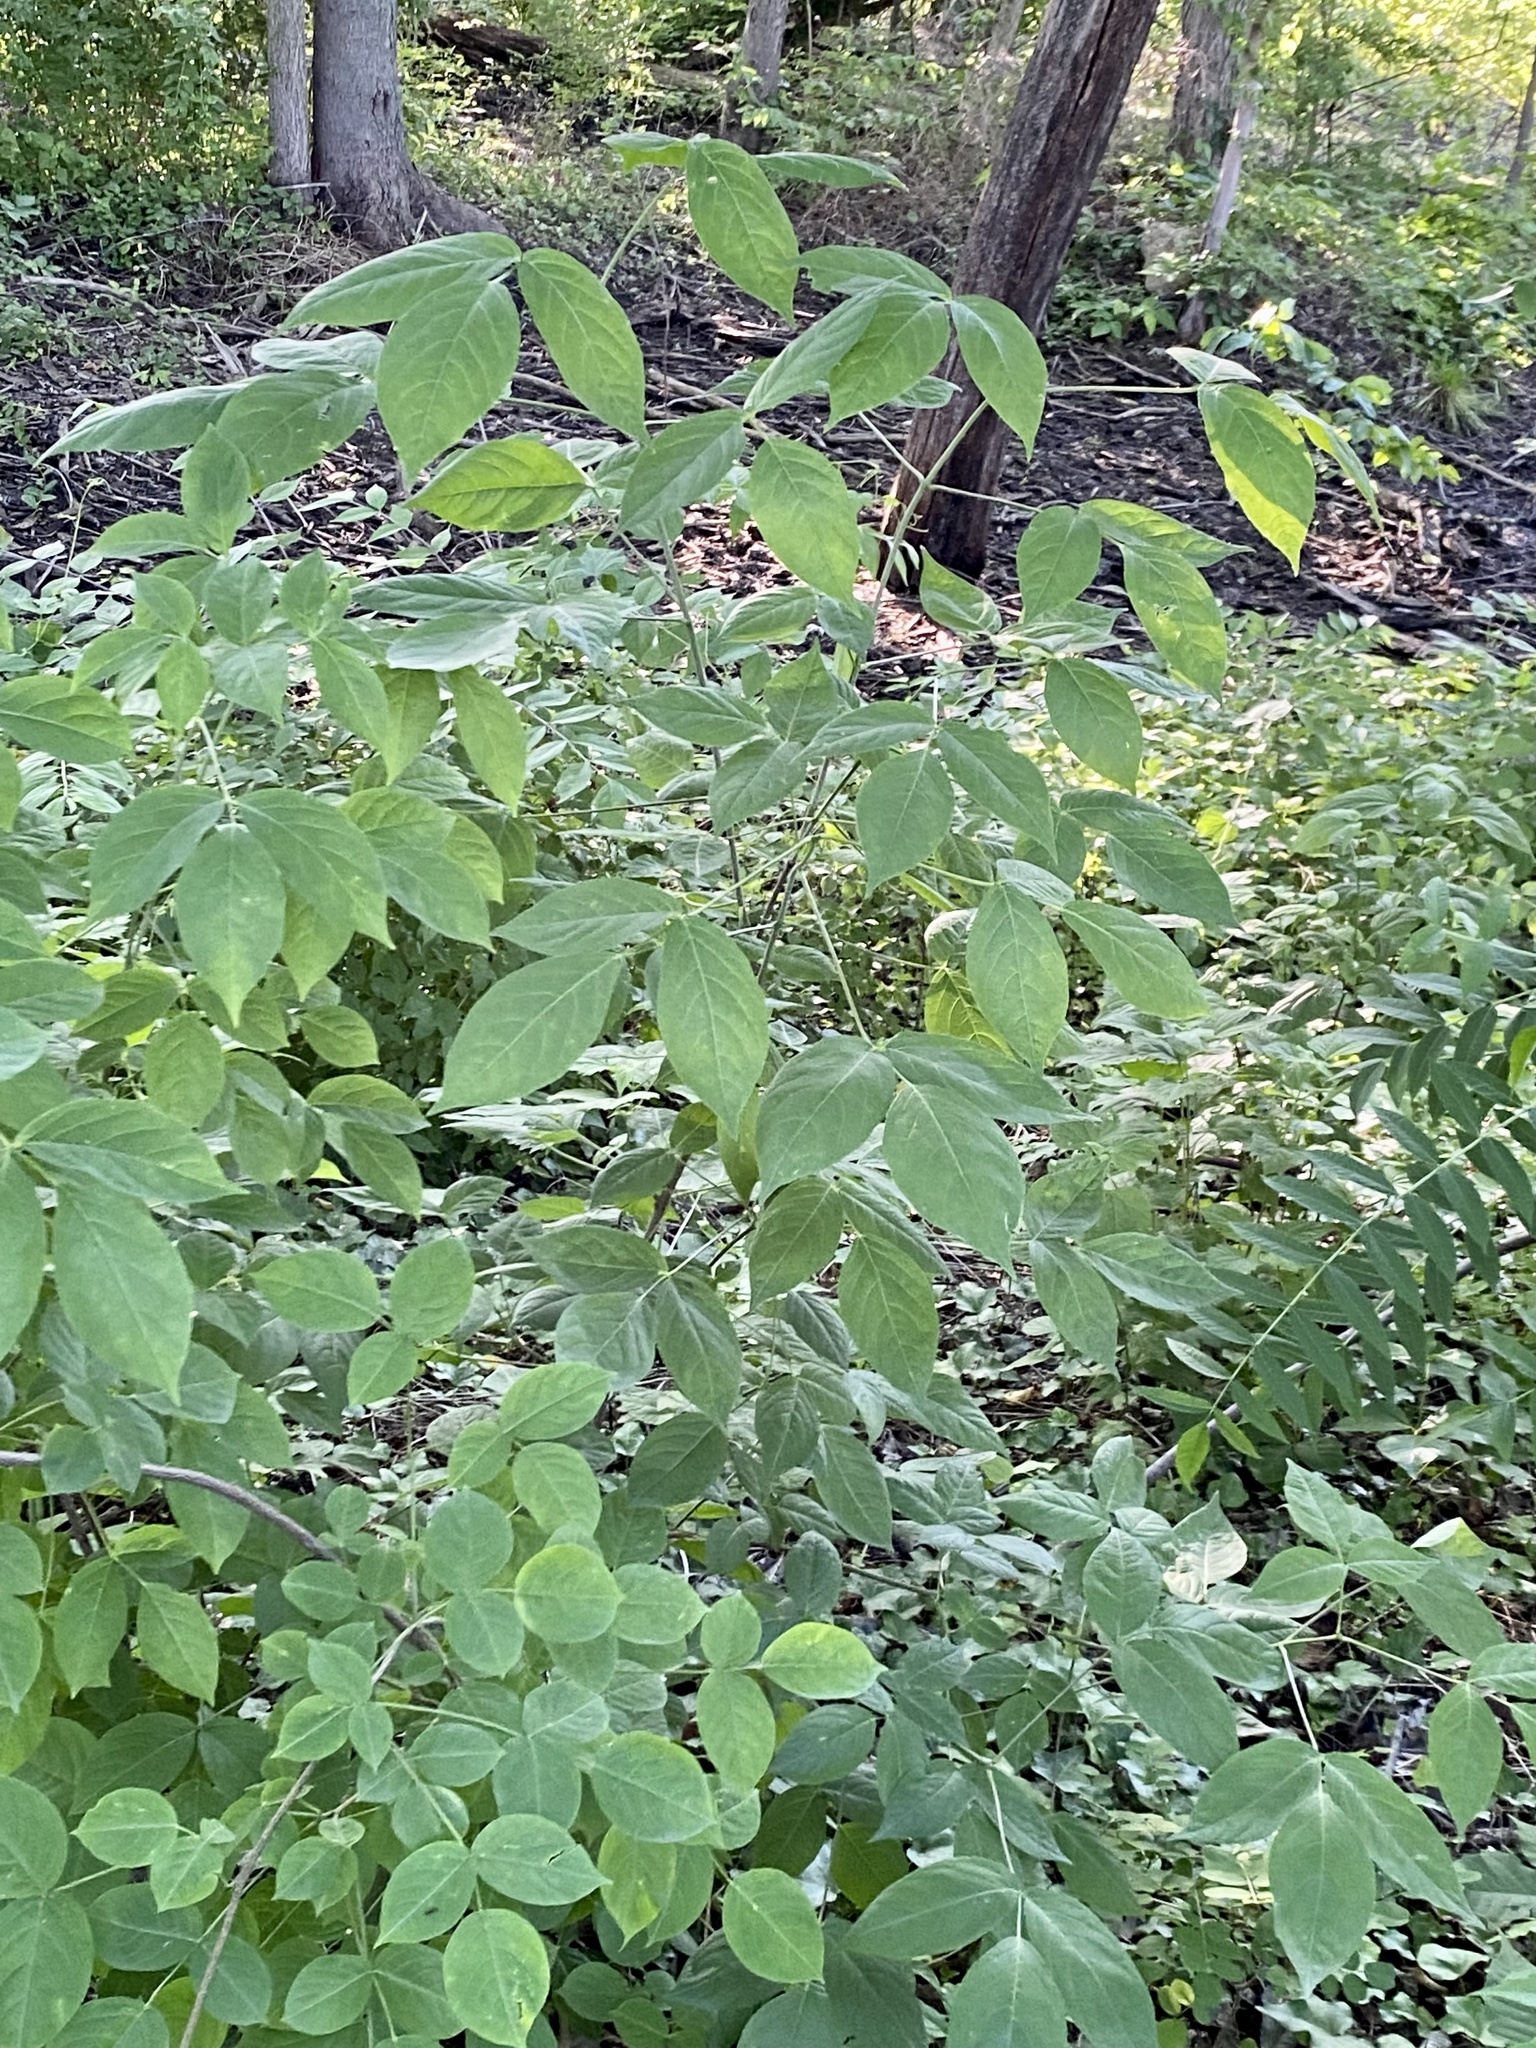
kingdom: Plantae
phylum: Tracheophyta
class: Magnoliopsida
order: Crossosomatales
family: Staphyleaceae
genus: Staphylea
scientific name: Staphylea trifolia
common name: American bladdernut
